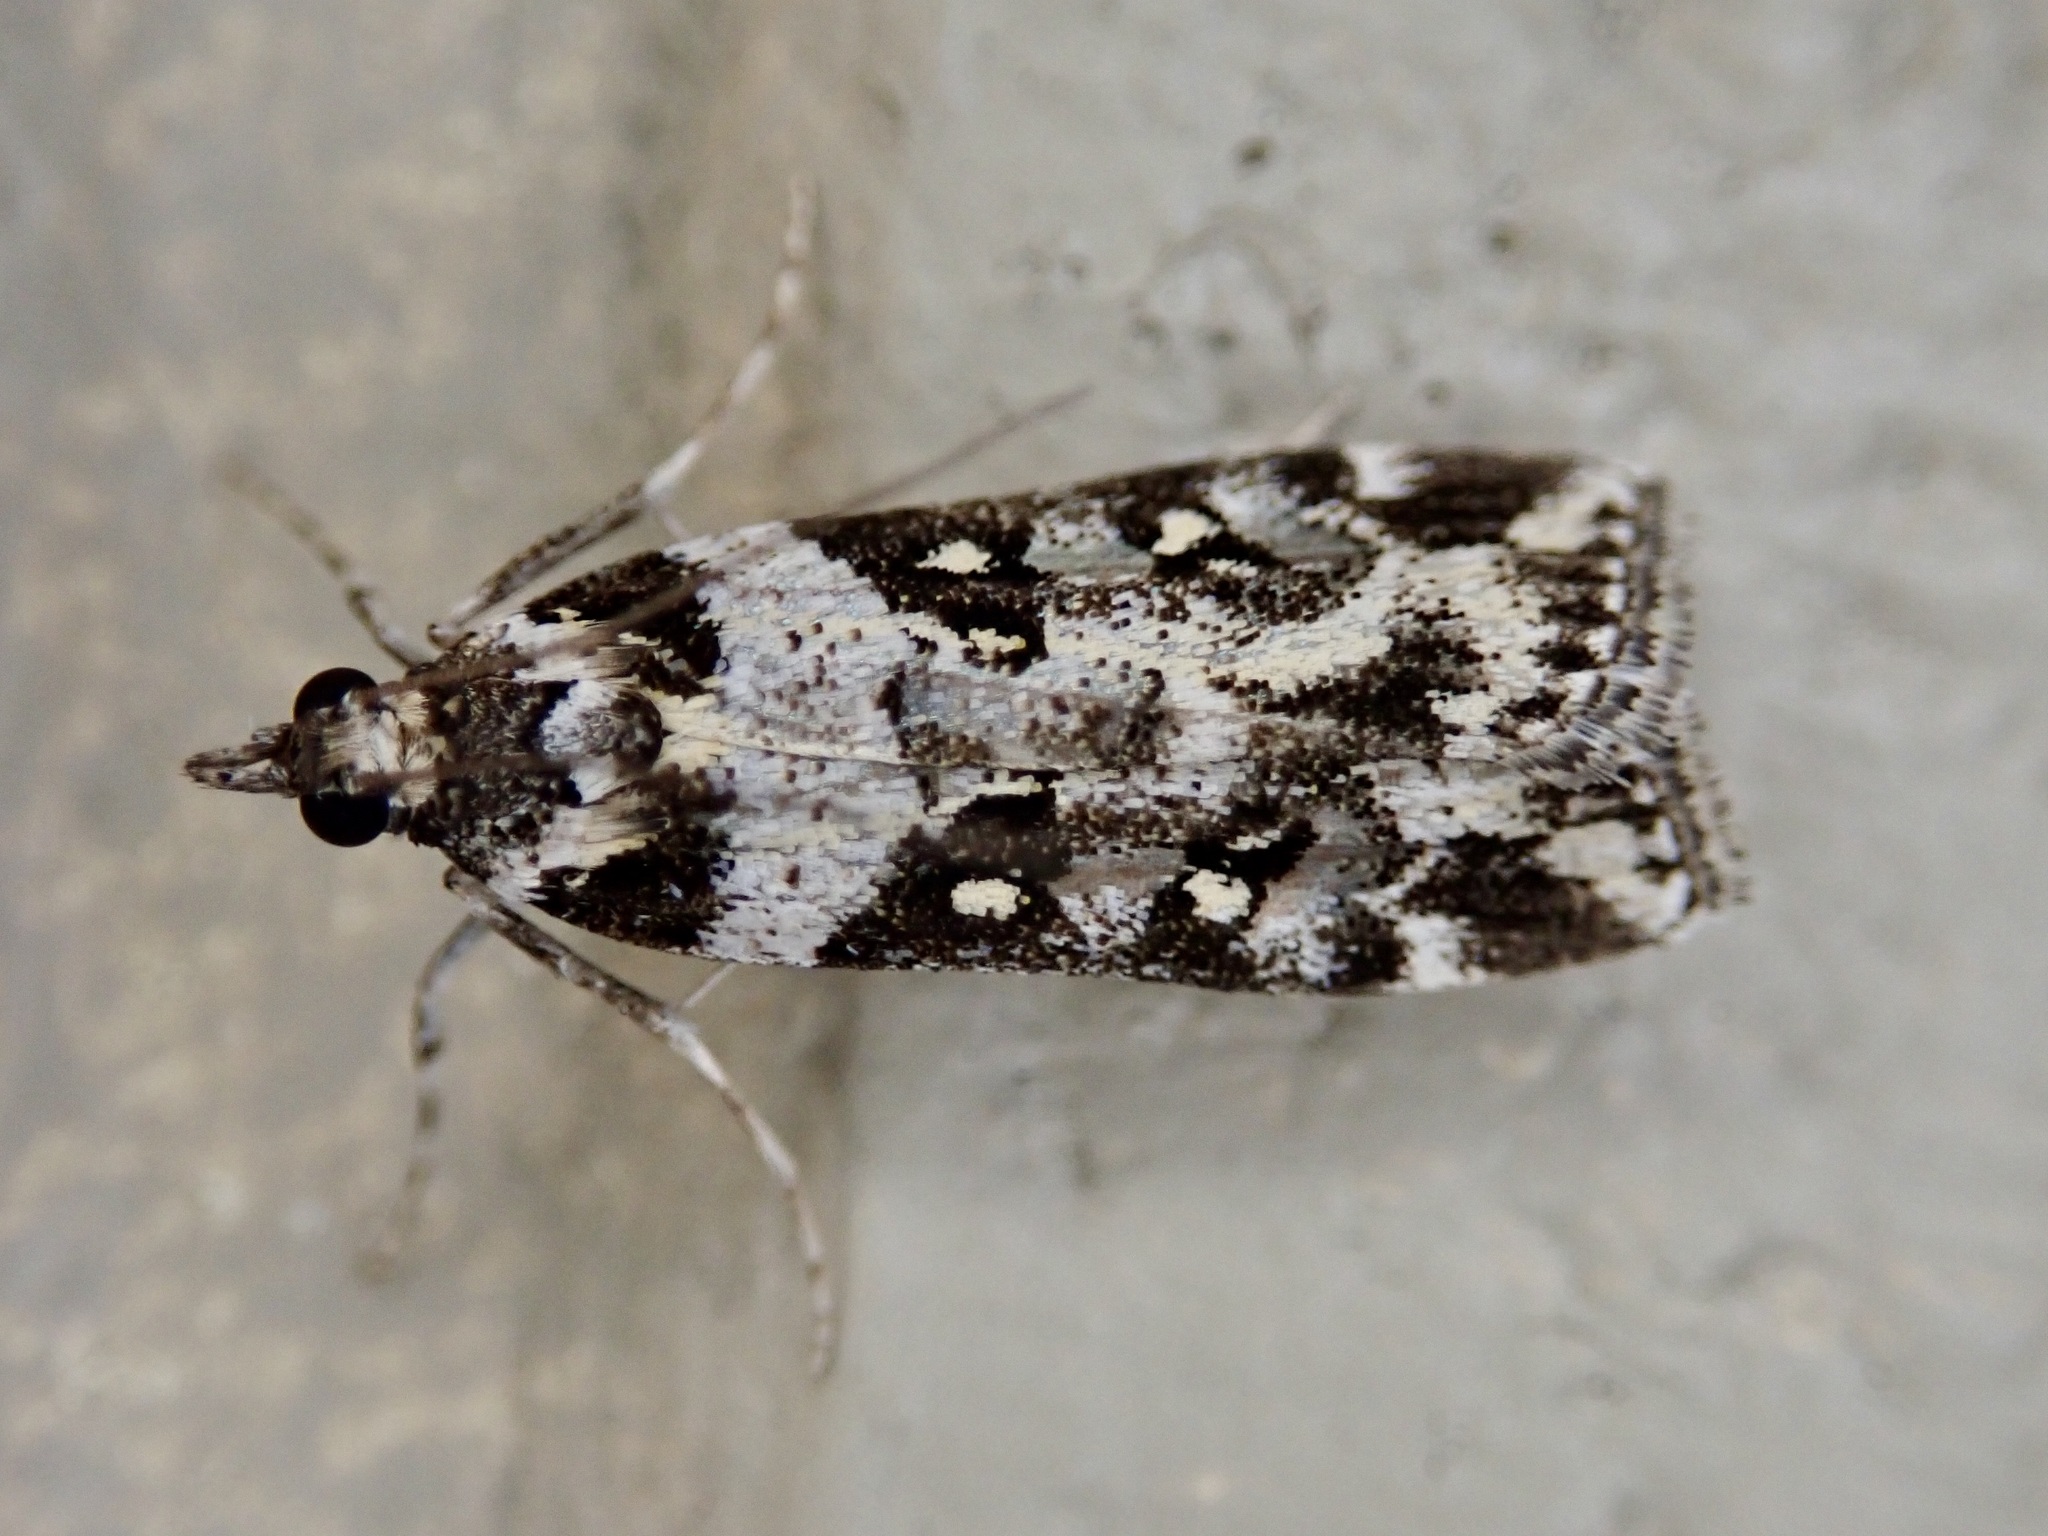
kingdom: Animalia
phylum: Arthropoda
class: Insecta
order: Lepidoptera
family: Crambidae
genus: Eudonia
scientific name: Eudonia diphtheralis
